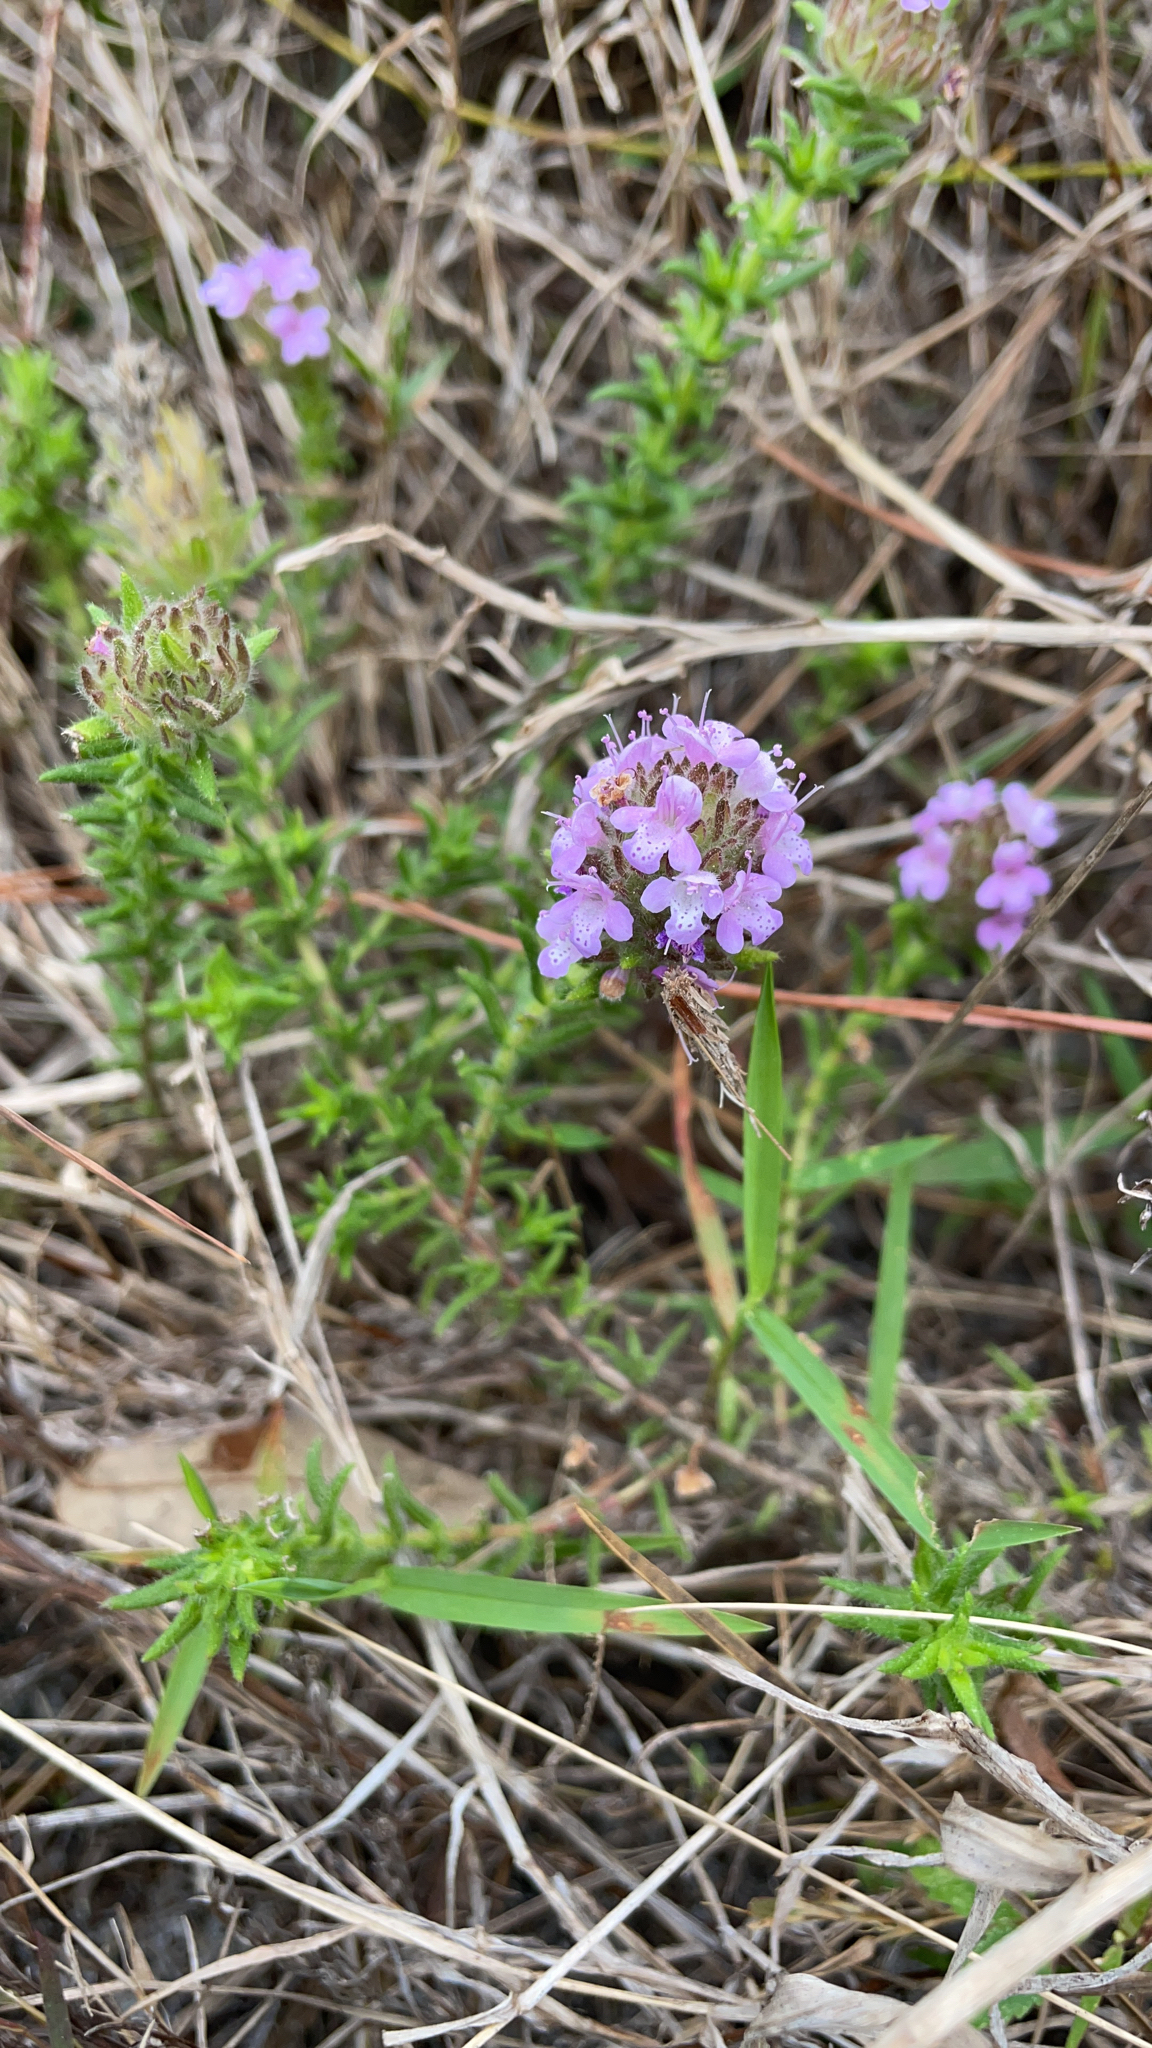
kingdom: Plantae
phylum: Tracheophyta
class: Magnoliopsida
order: Lamiales
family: Lamiaceae
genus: Piloblephis
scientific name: Piloblephis rigida
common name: Wild pennyroyal
